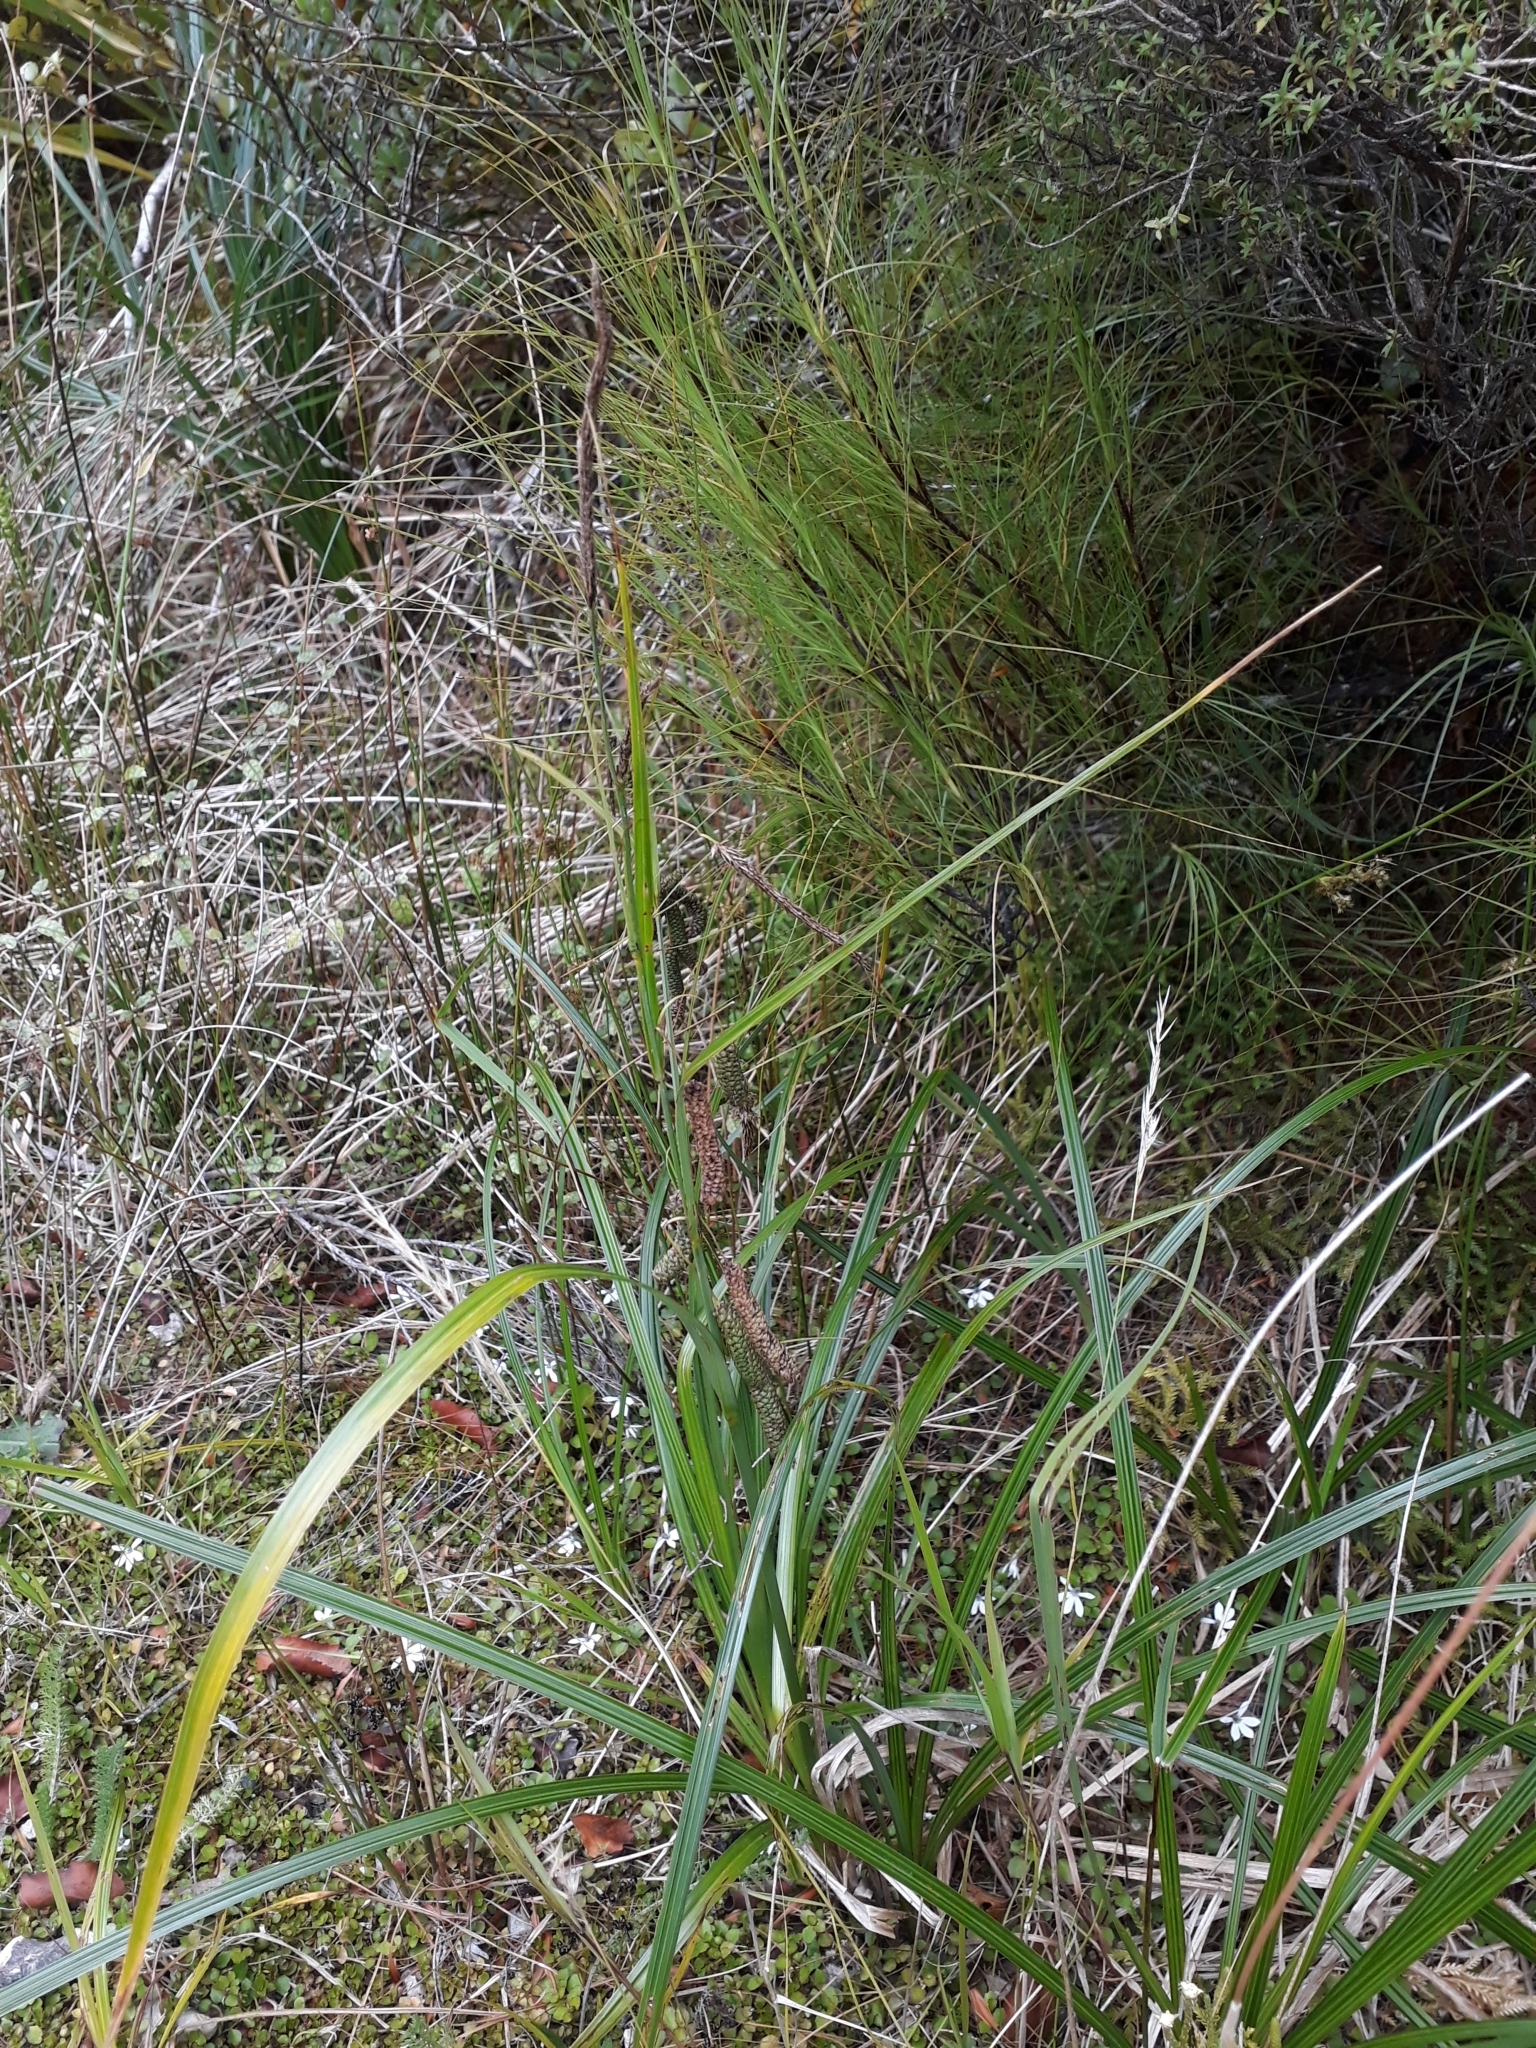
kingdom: Plantae
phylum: Tracheophyta
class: Liliopsida
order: Poales
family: Cyperaceae
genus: Carex
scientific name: Carex geminata
